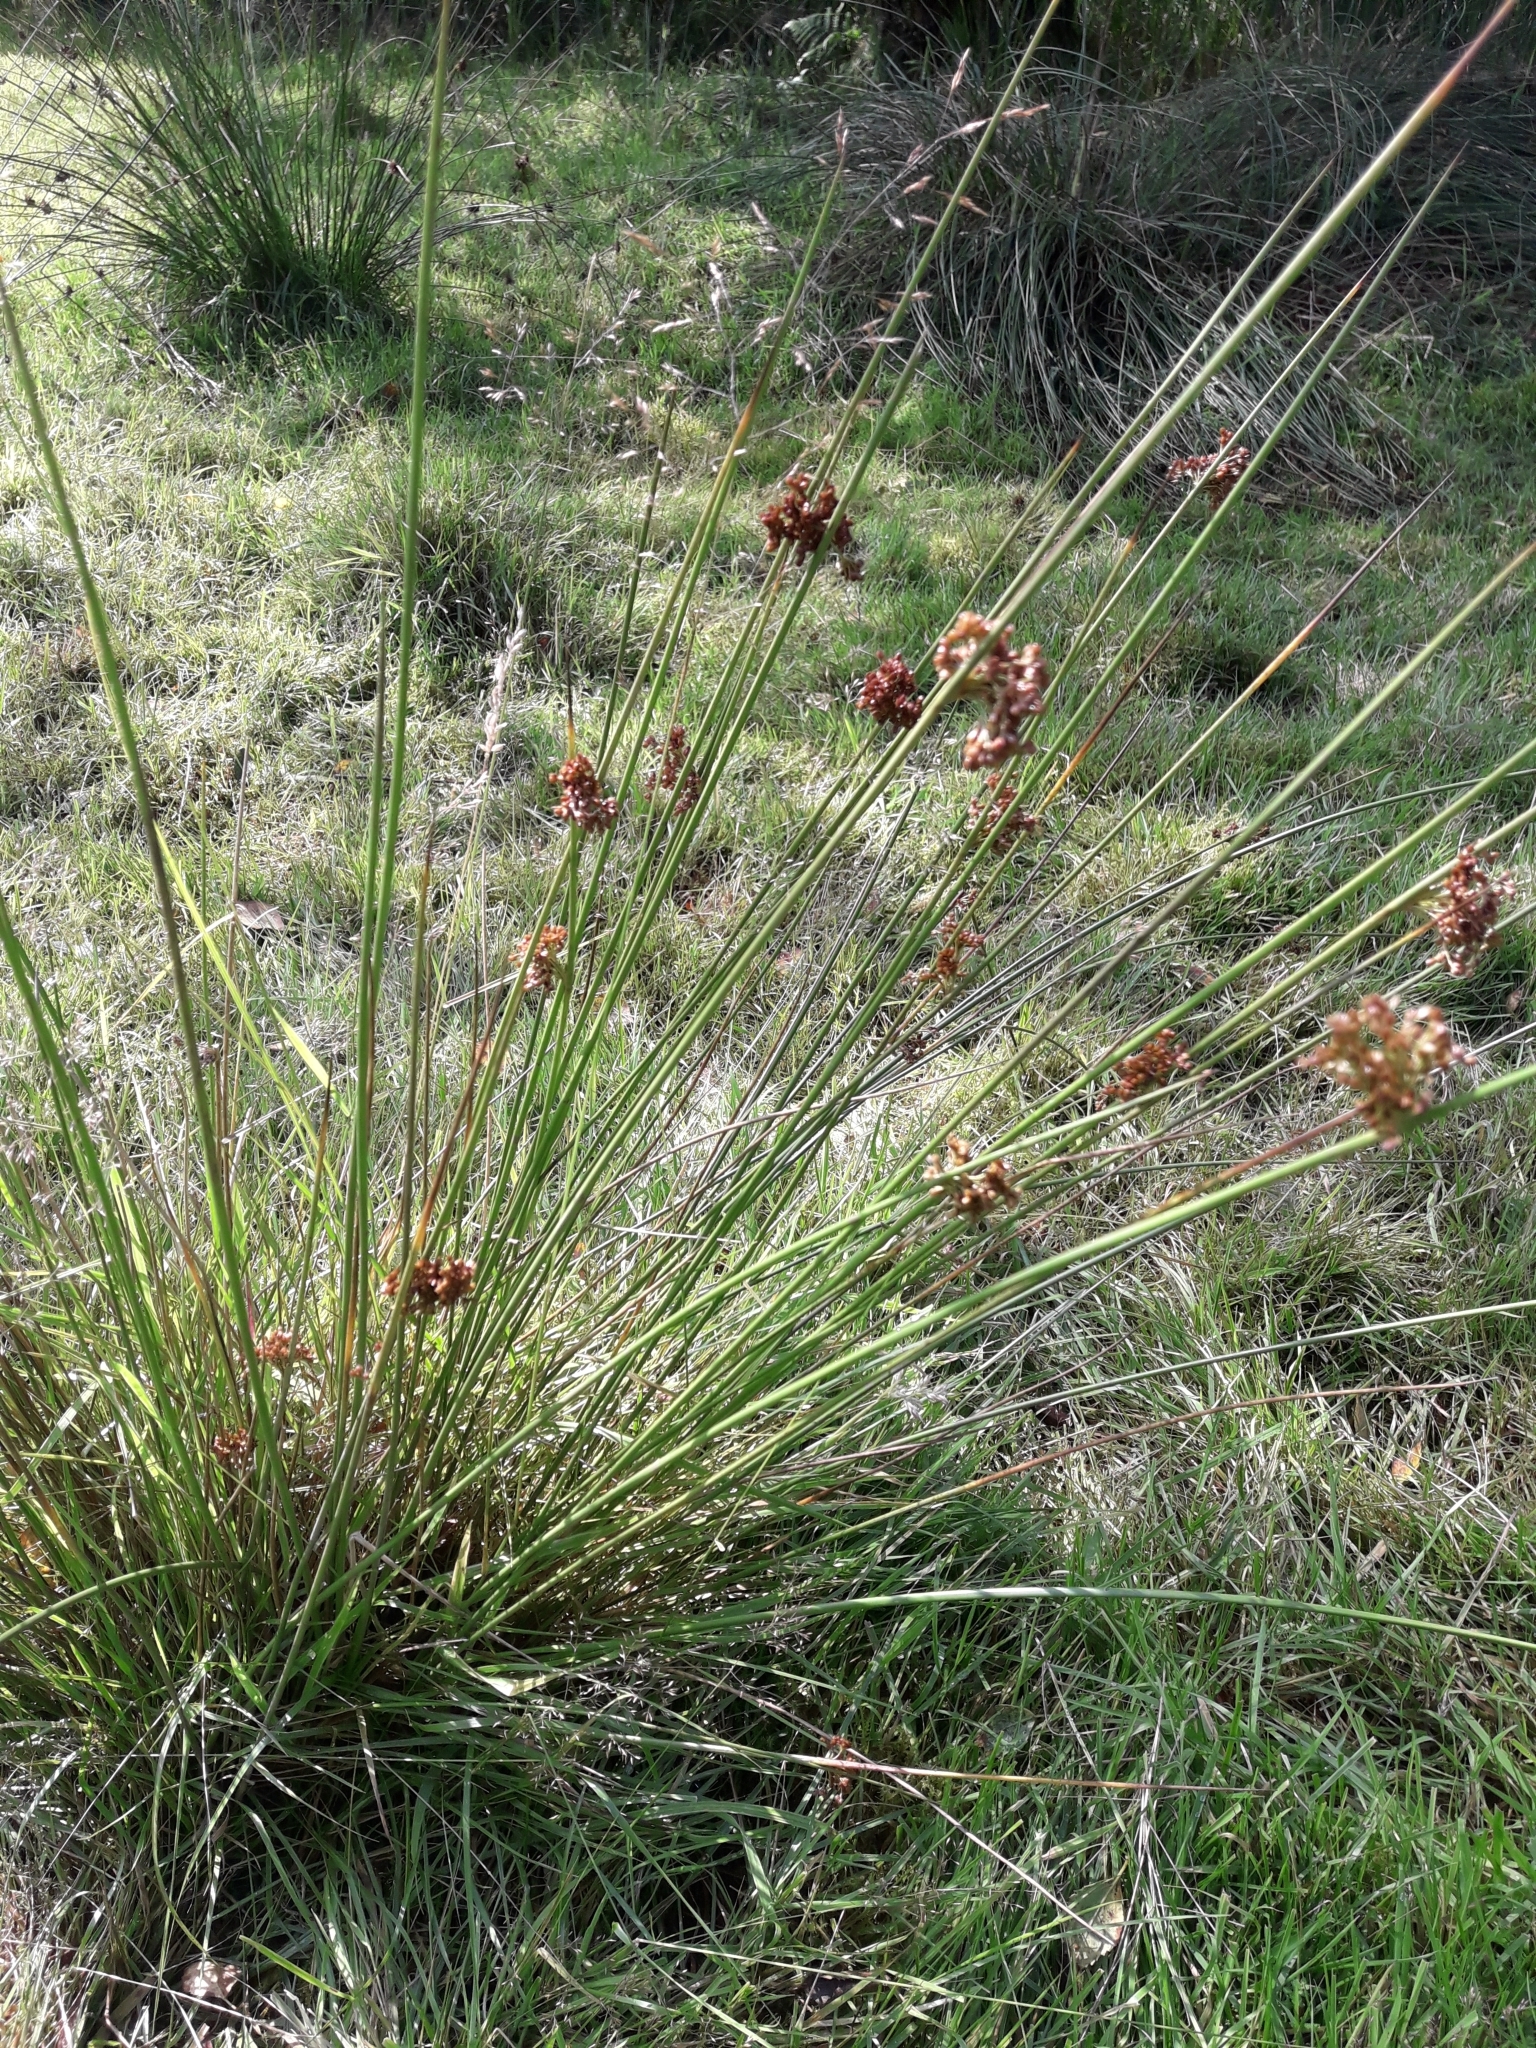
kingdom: Plantae
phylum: Tracheophyta
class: Liliopsida
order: Poales
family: Juncaceae
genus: Juncus
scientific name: Juncus effusus
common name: Soft rush
